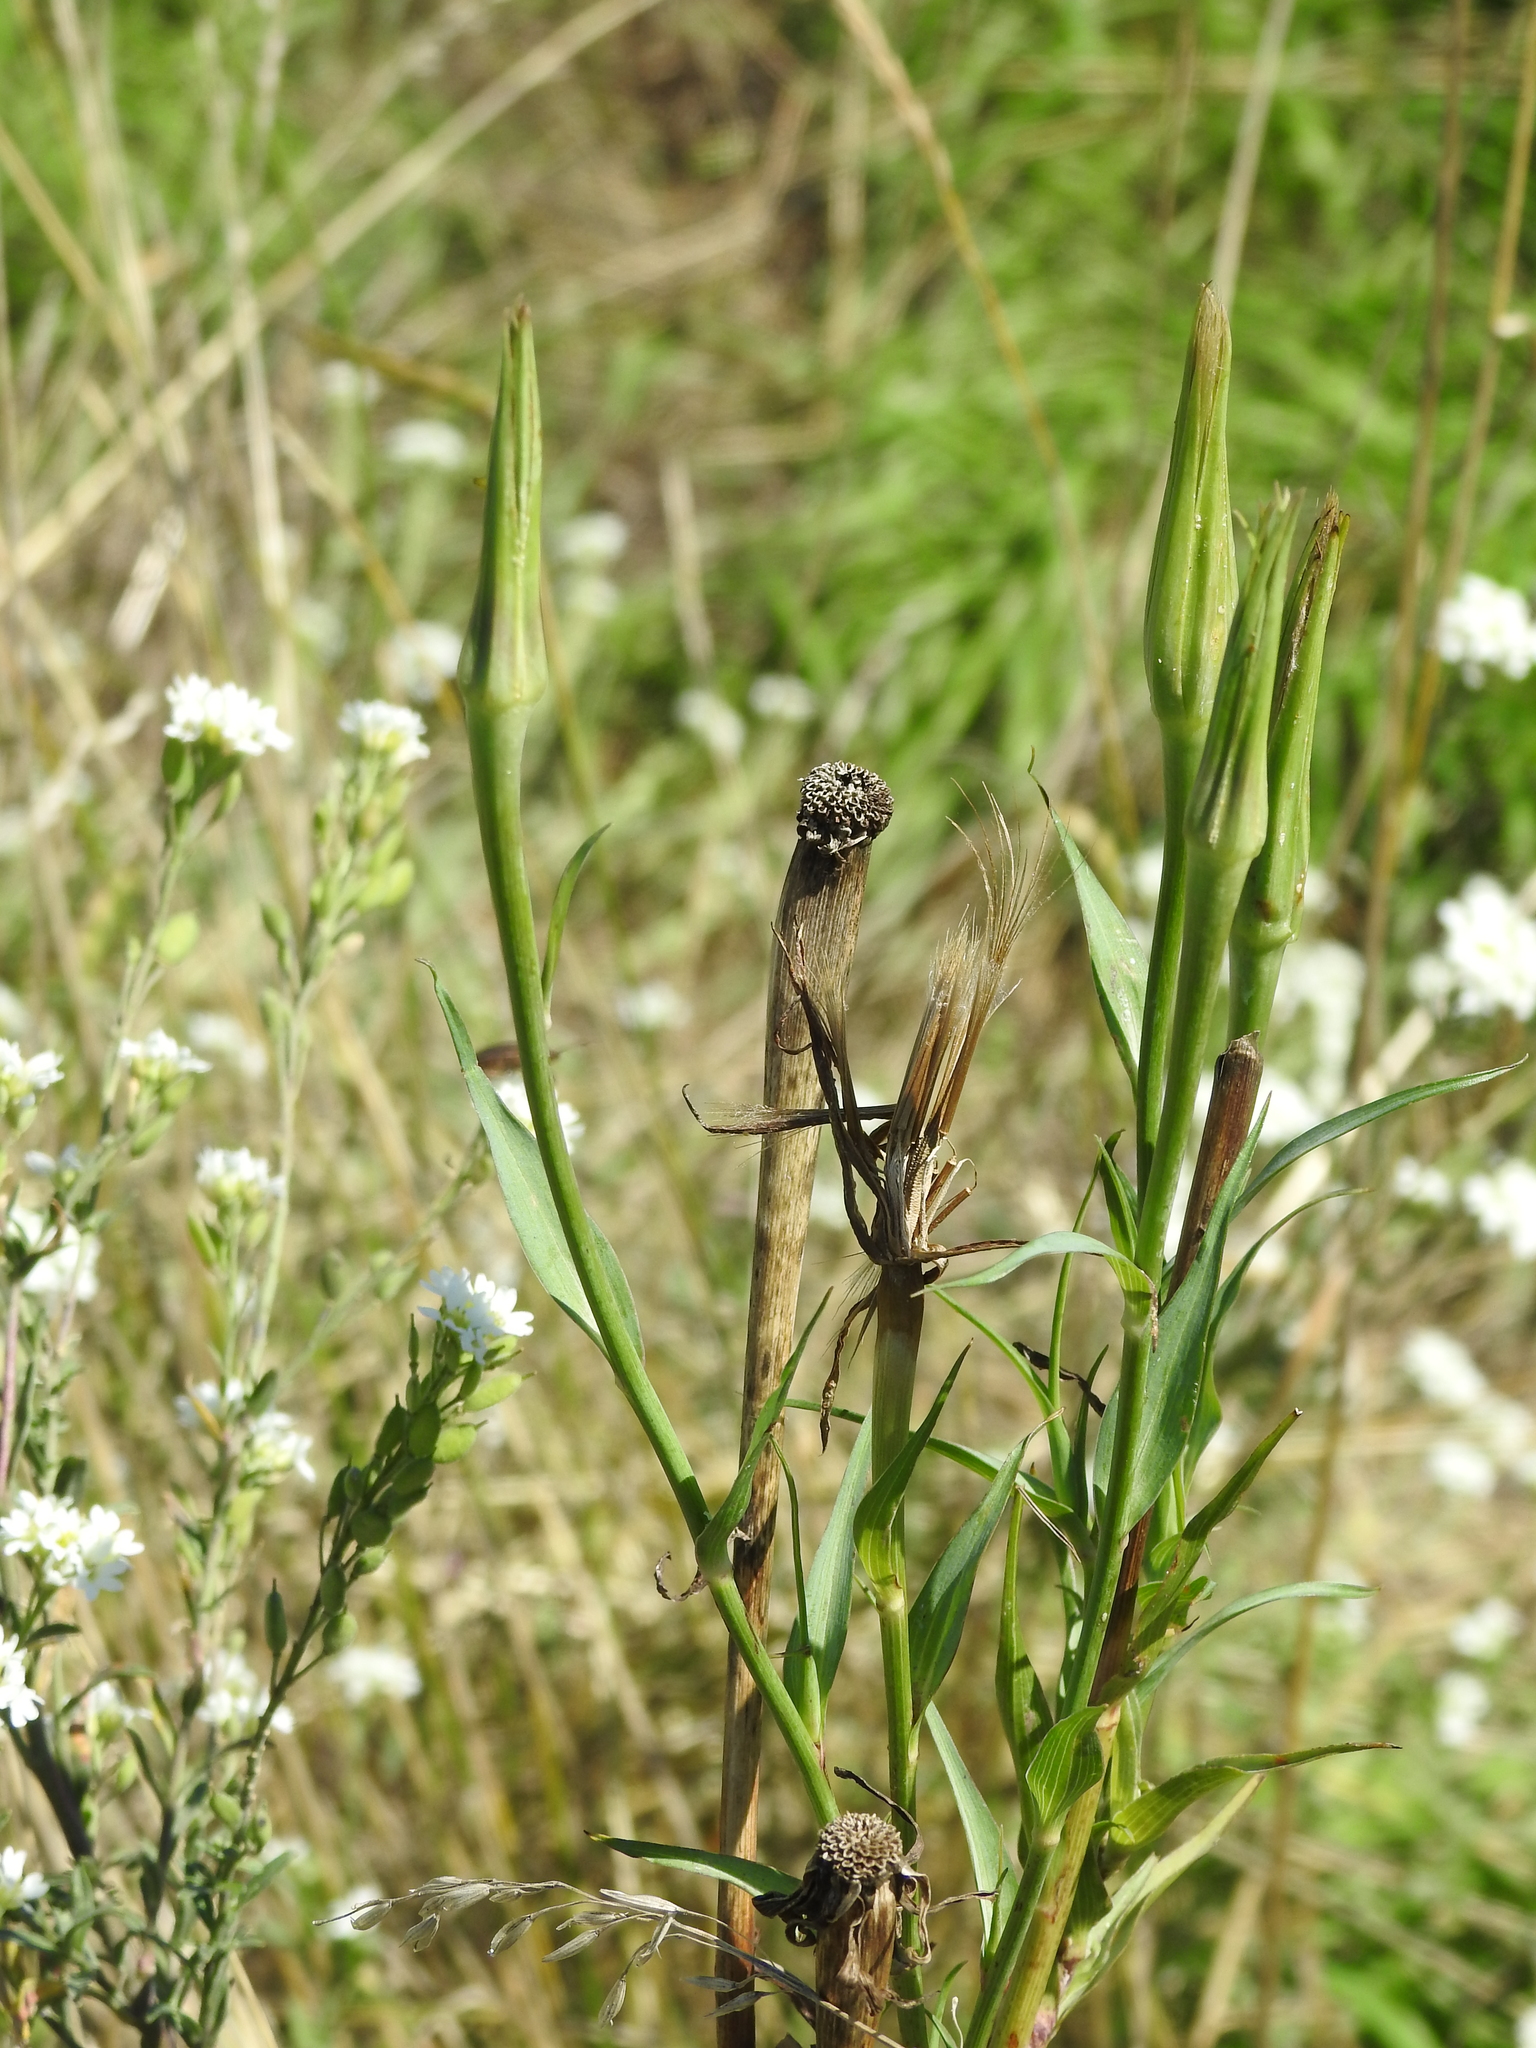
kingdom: Plantae
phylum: Tracheophyta
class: Magnoliopsida
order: Asterales
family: Asteraceae
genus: Tragopogon
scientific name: Tragopogon dubius
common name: Yellow salsify
